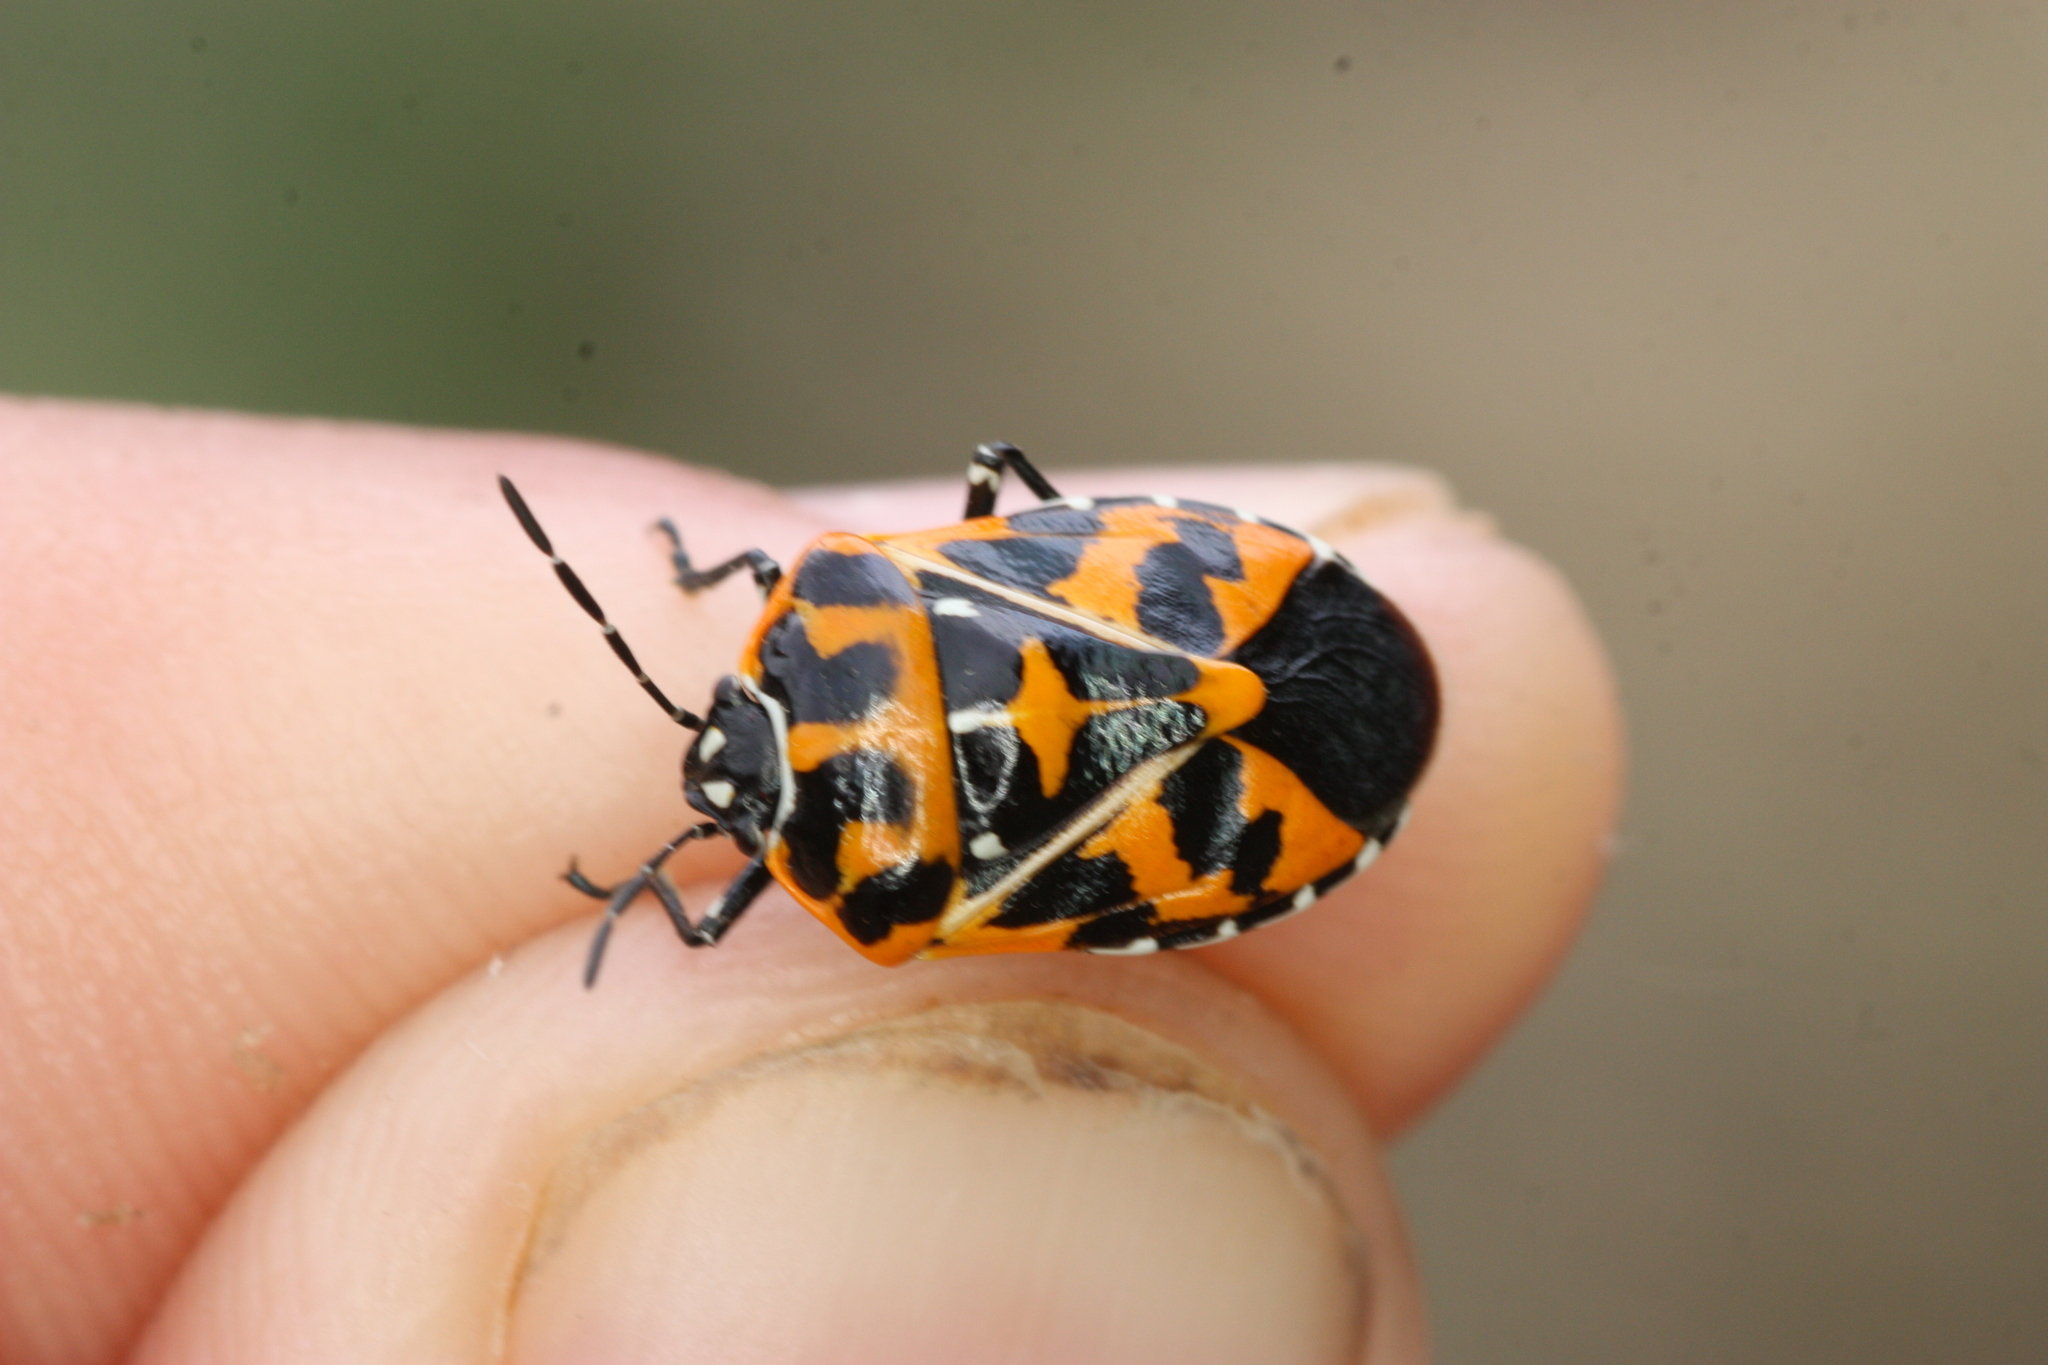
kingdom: Animalia
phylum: Arthropoda
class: Insecta
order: Hemiptera
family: Pentatomidae
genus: Murgantia
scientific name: Murgantia histrionica
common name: Harlequin bug
